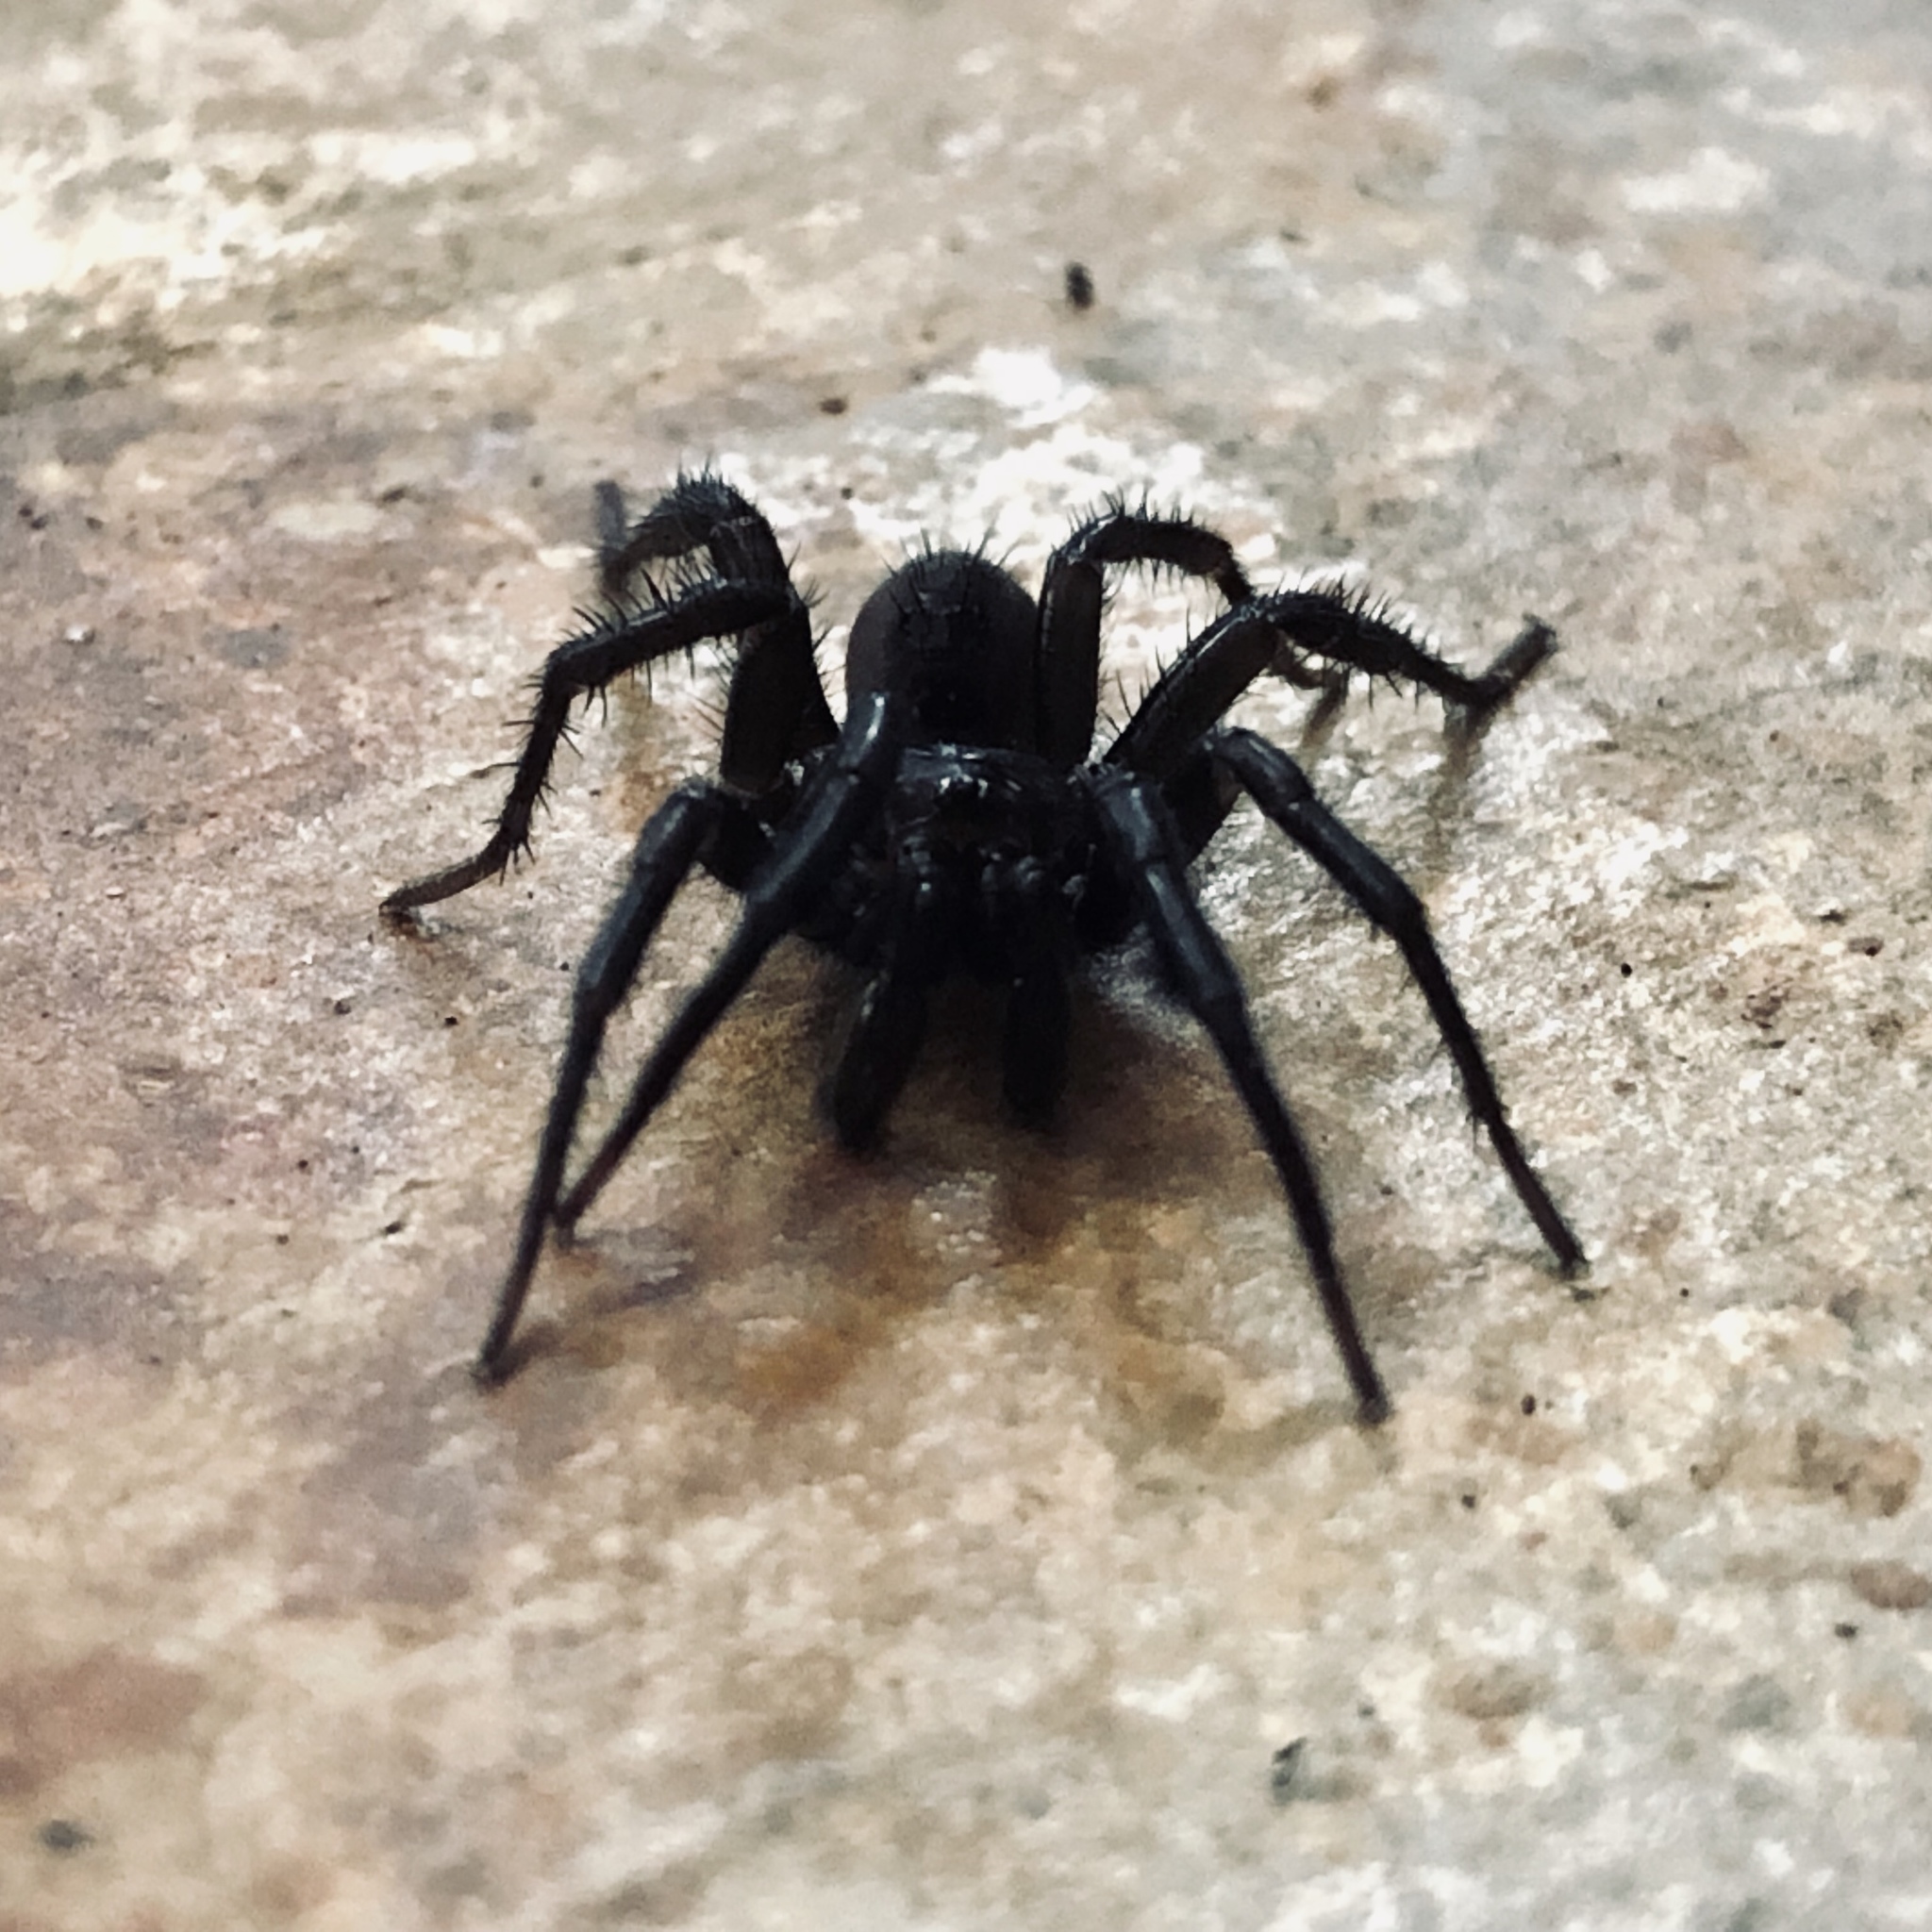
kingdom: Animalia
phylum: Arthropoda
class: Arachnida
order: Araneae
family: Antrodiaetidae
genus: Antrodiaetus
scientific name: Antrodiaetus pacificus
